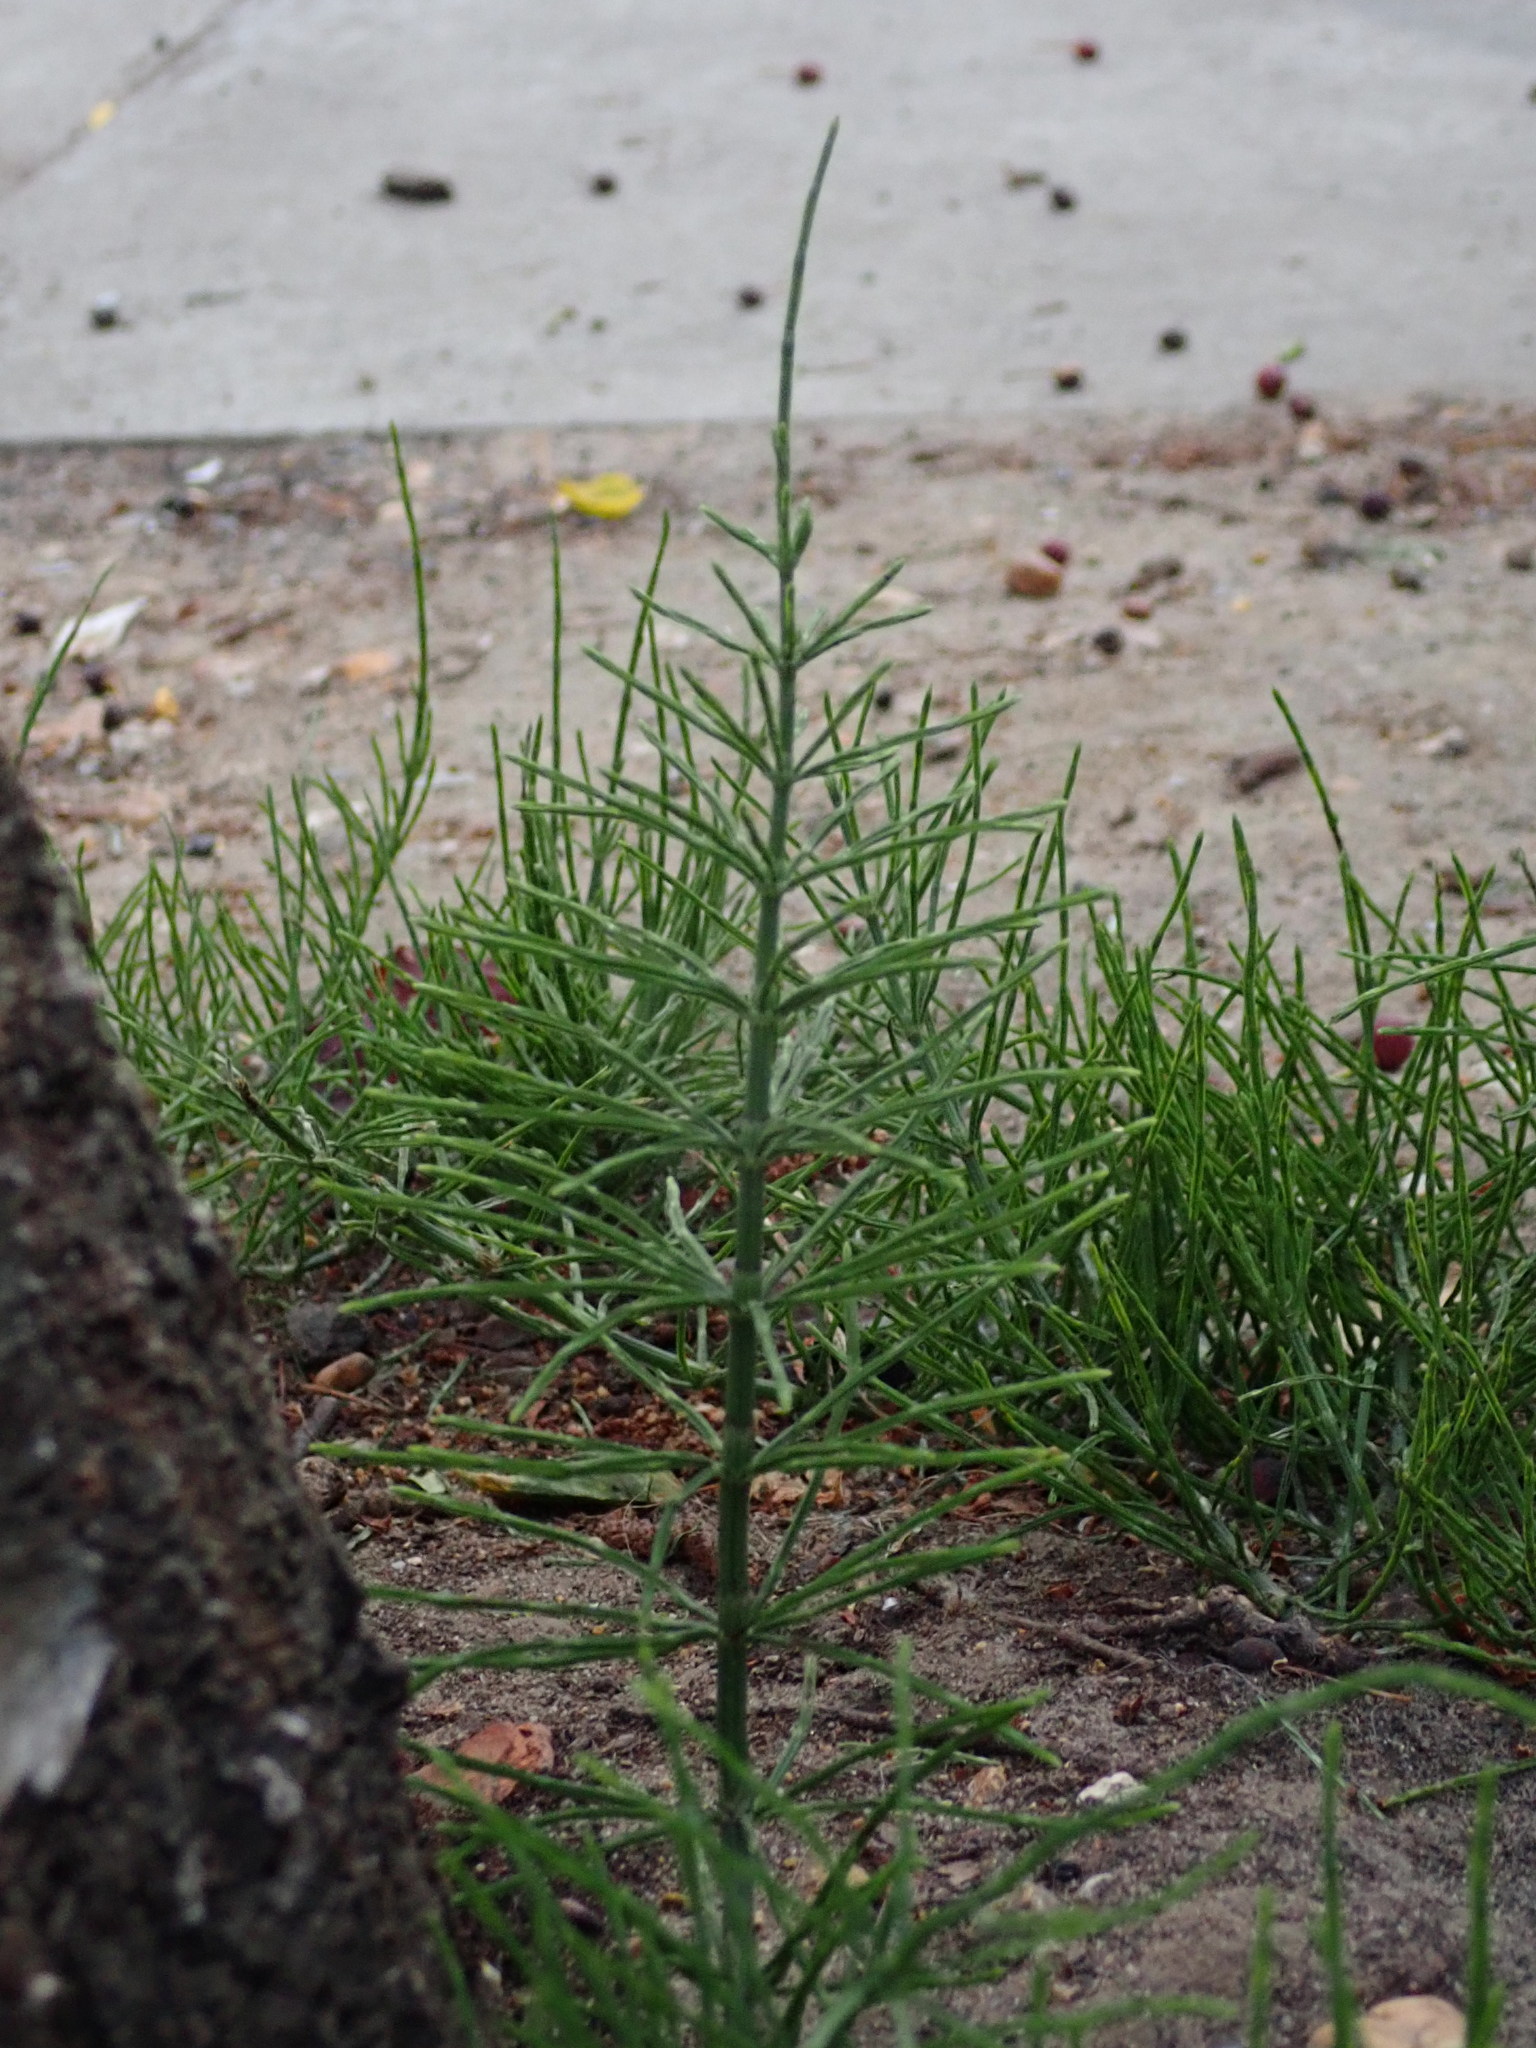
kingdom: Plantae
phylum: Tracheophyta
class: Polypodiopsida
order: Equisetales
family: Equisetaceae
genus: Equisetum
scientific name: Equisetum arvense
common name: Field horsetail
